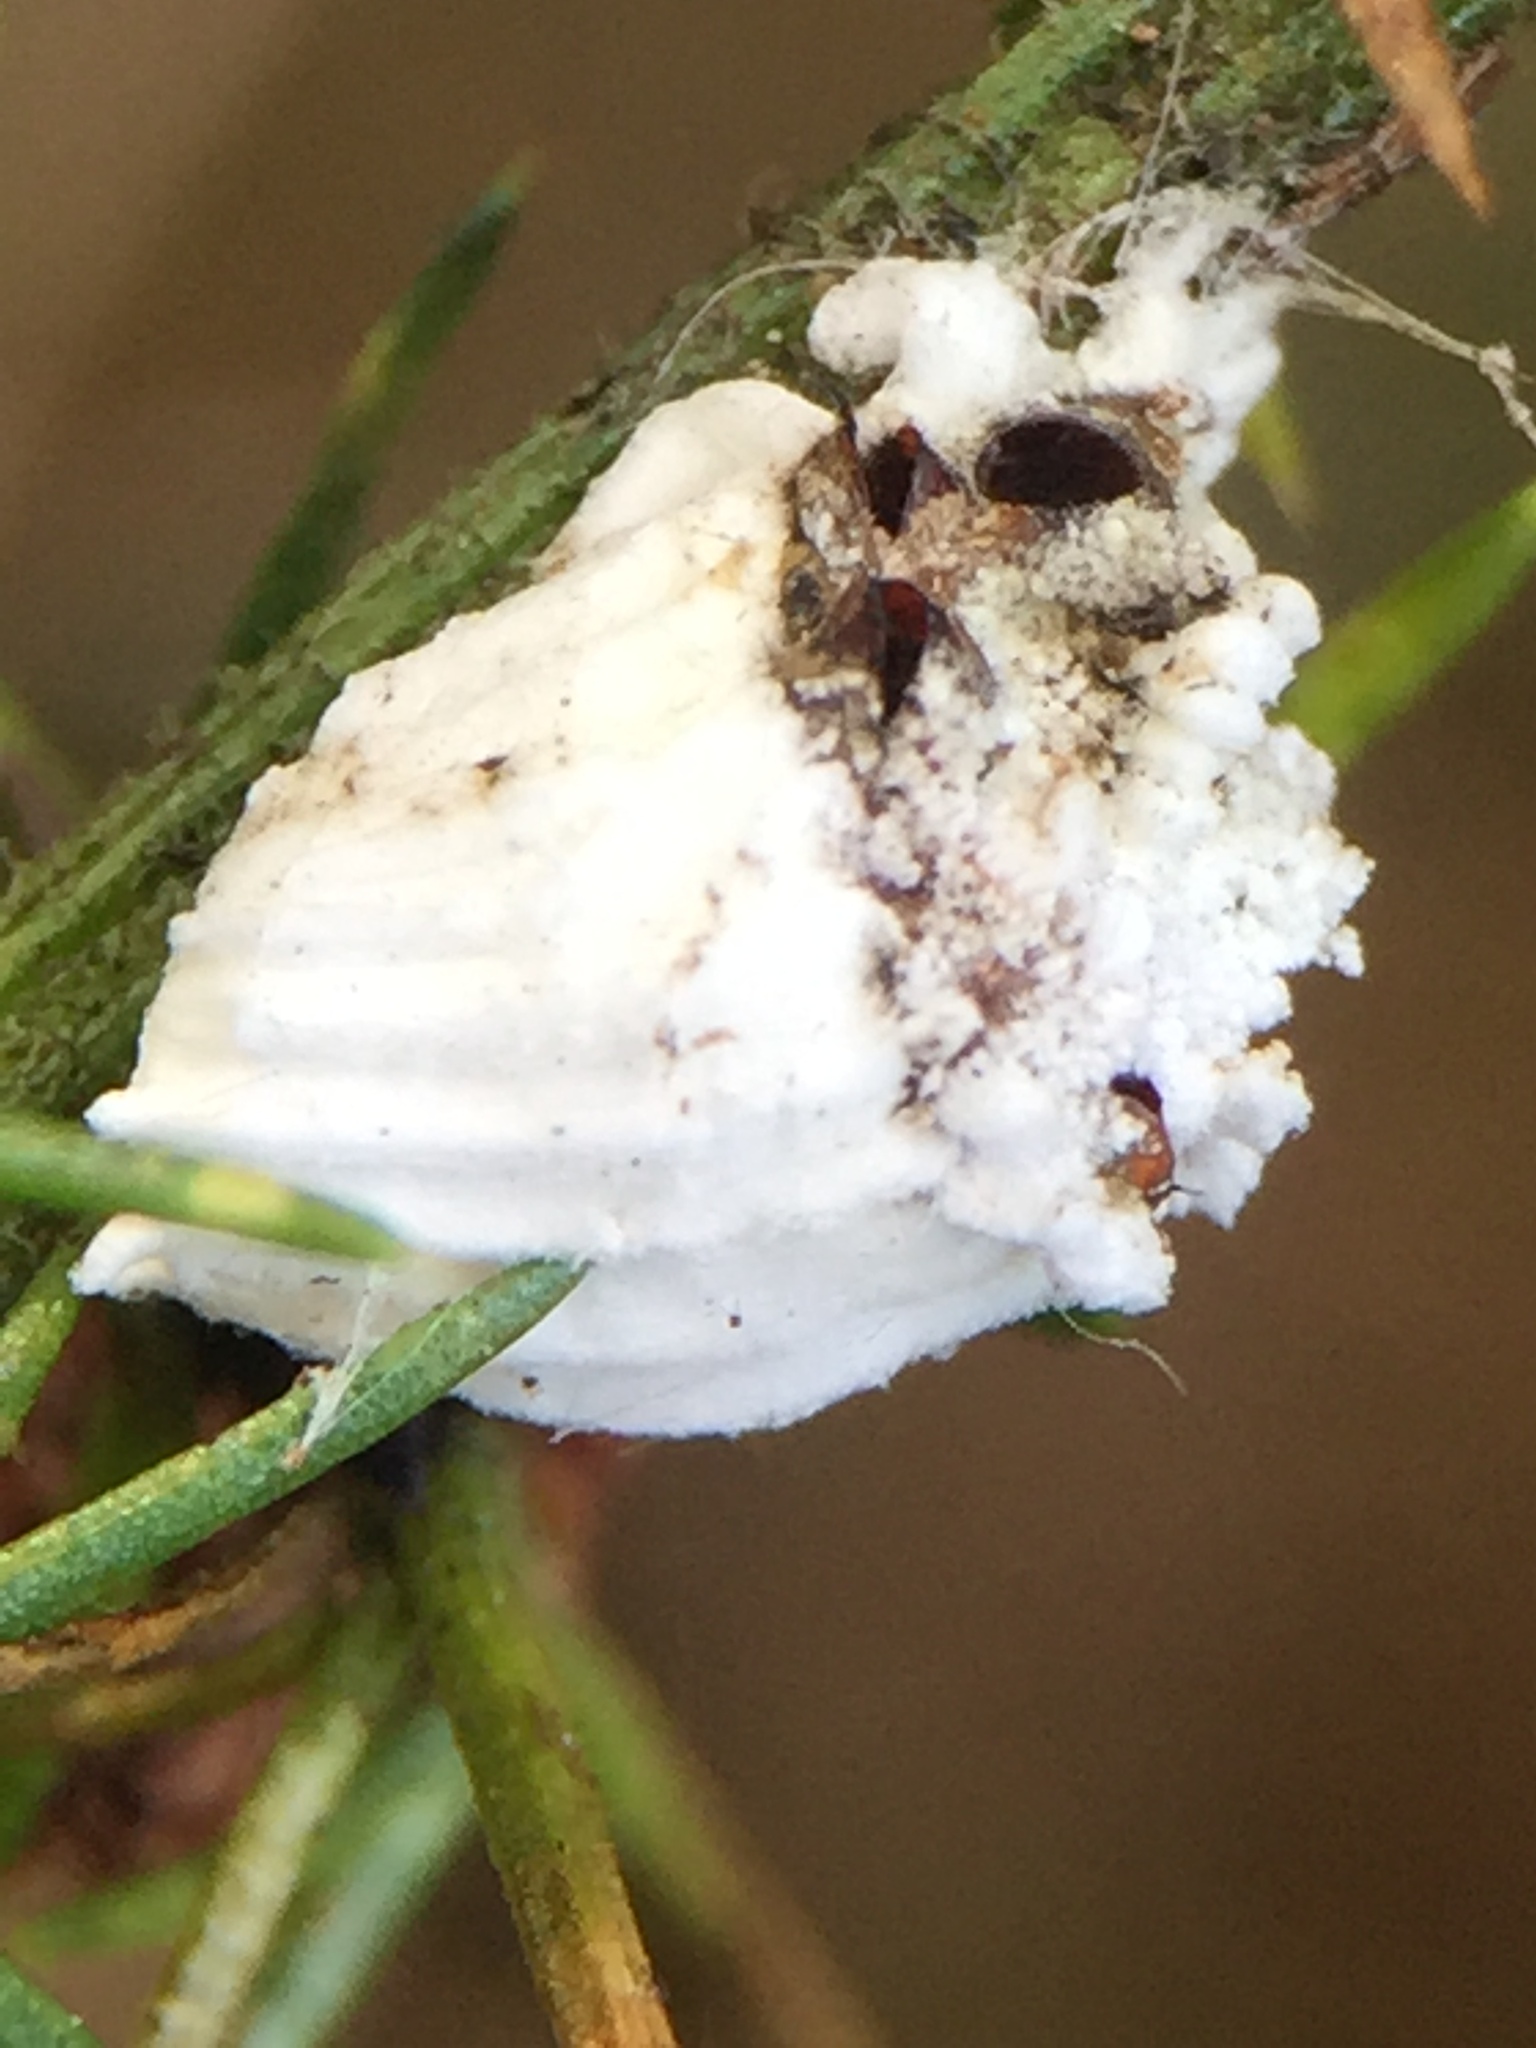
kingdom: Animalia
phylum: Arthropoda
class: Insecta
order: Diptera
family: Cryptochetidae
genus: Cryptochetum
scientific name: Cryptochetum iceryae
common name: Cottony cushion scale fly
